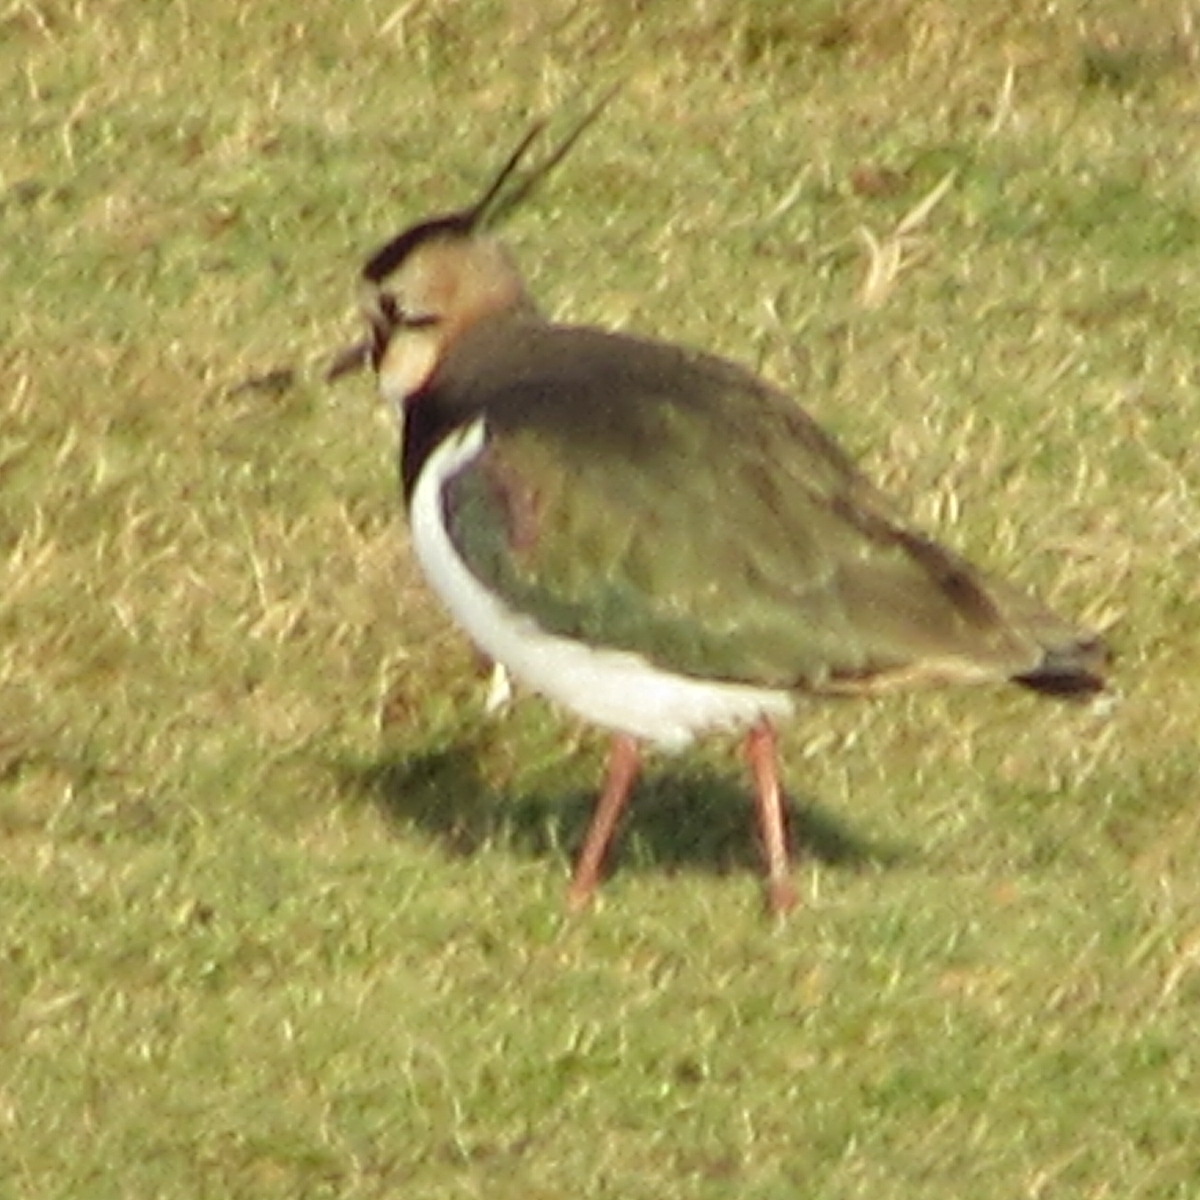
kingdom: Animalia
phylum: Chordata
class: Aves
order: Charadriiformes
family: Charadriidae
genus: Vanellus
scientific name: Vanellus vanellus
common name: Northern lapwing
